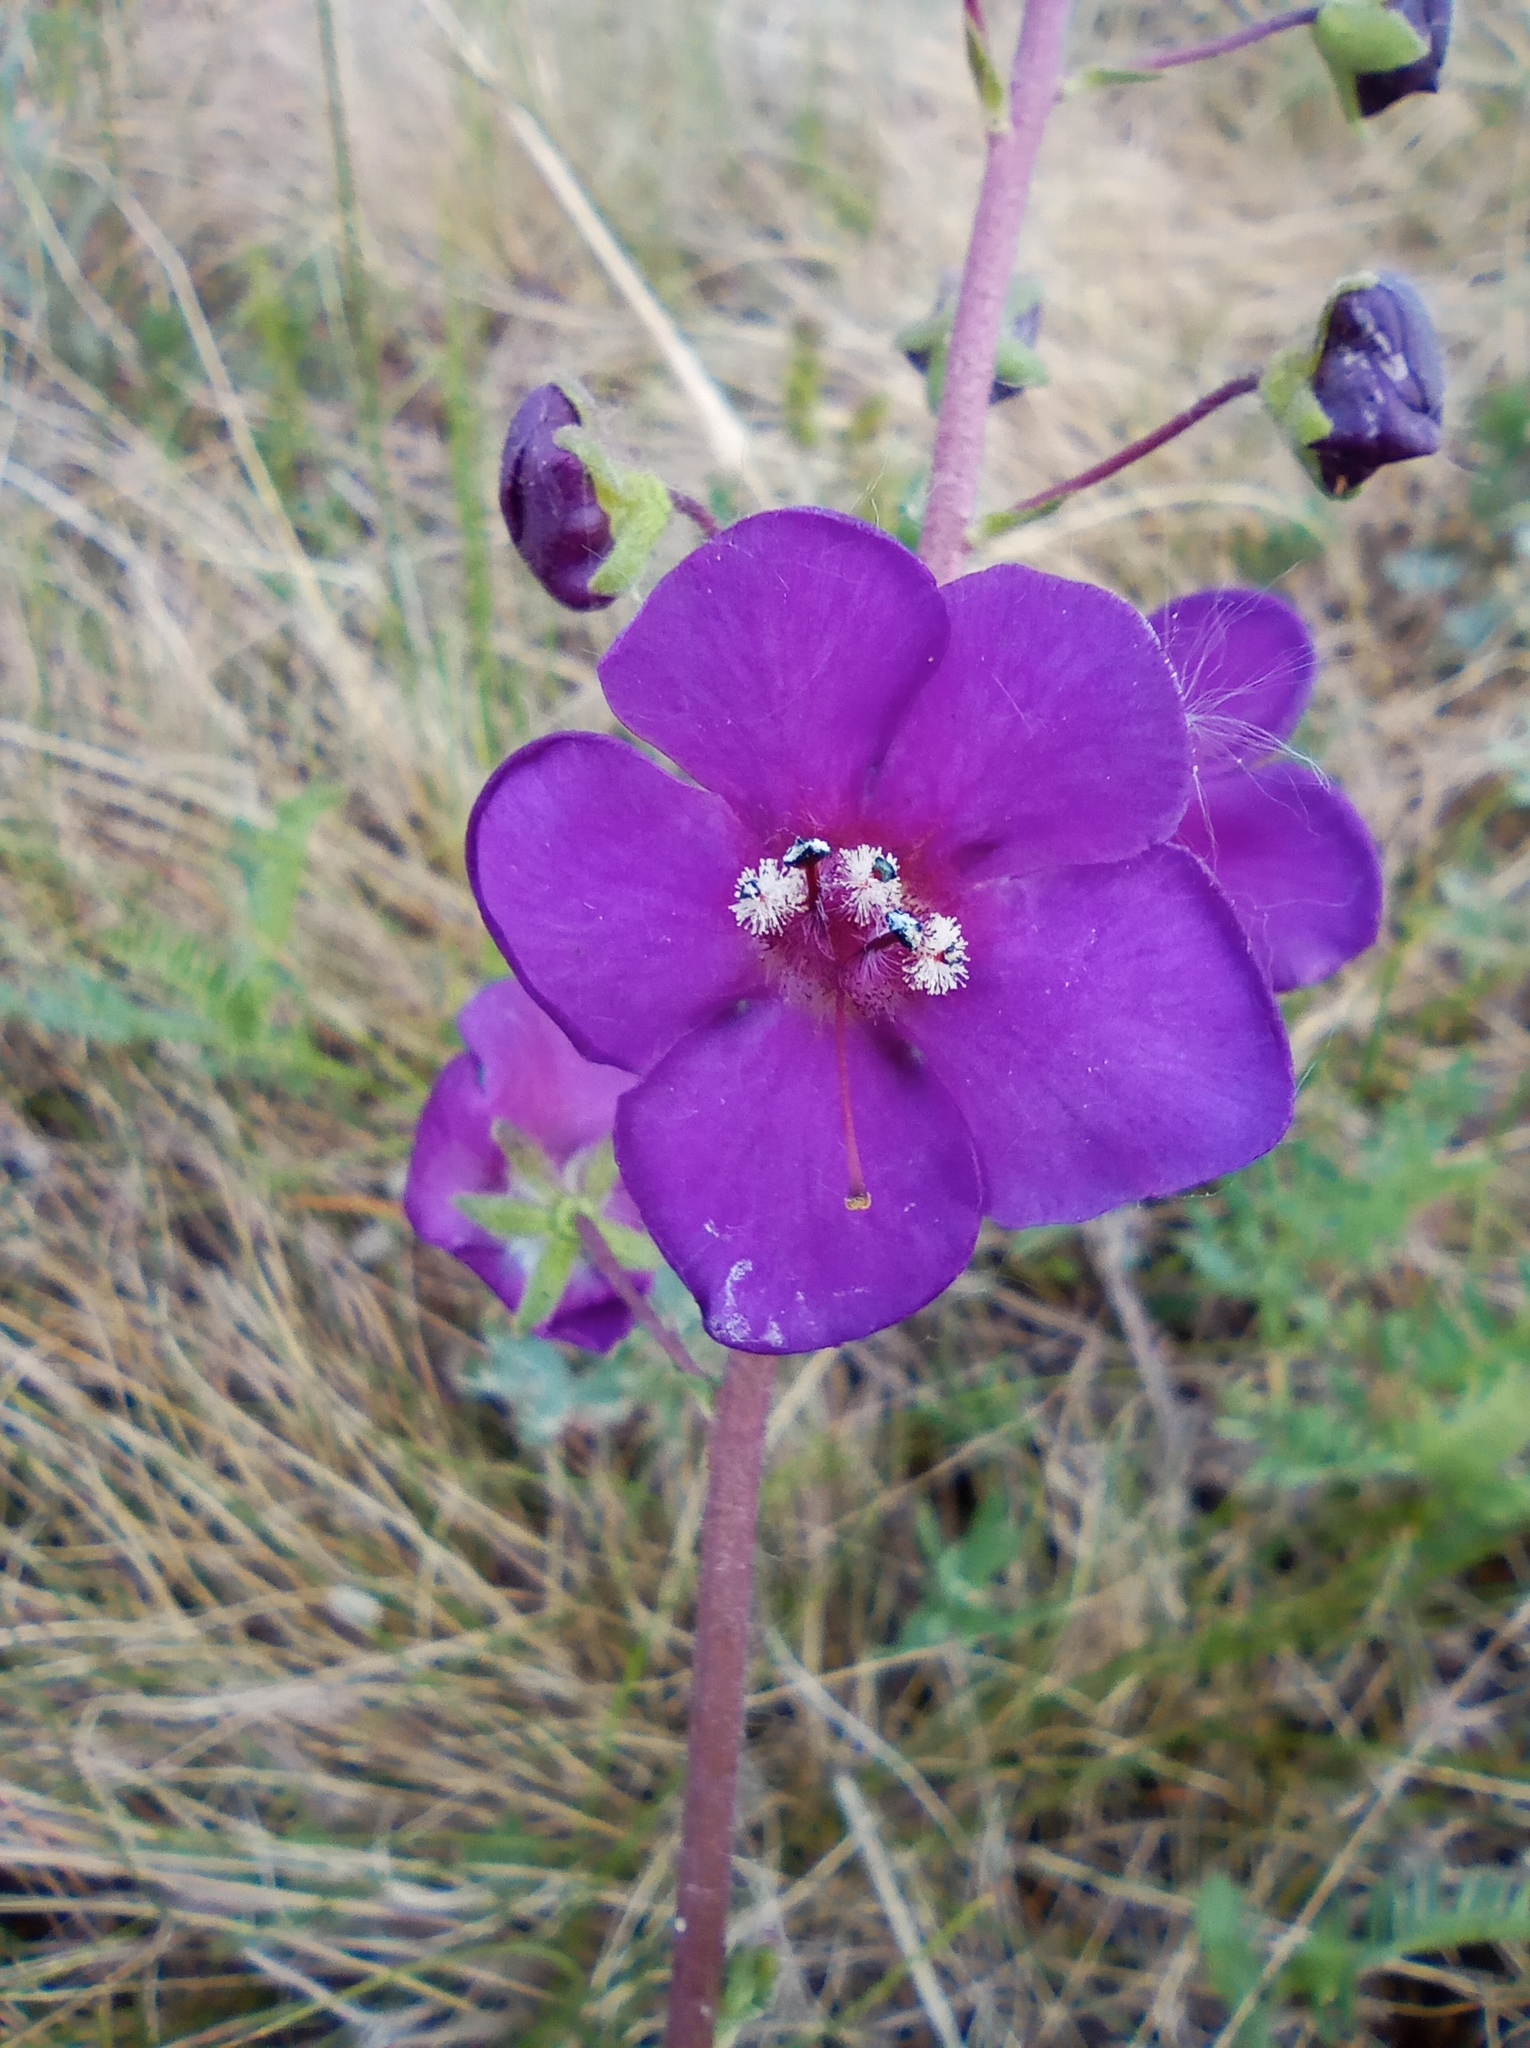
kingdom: Plantae
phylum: Tracheophyta
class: Magnoliopsida
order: Lamiales
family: Scrophulariaceae
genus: Verbascum
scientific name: Verbascum phoeniceum
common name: Purple mullein
